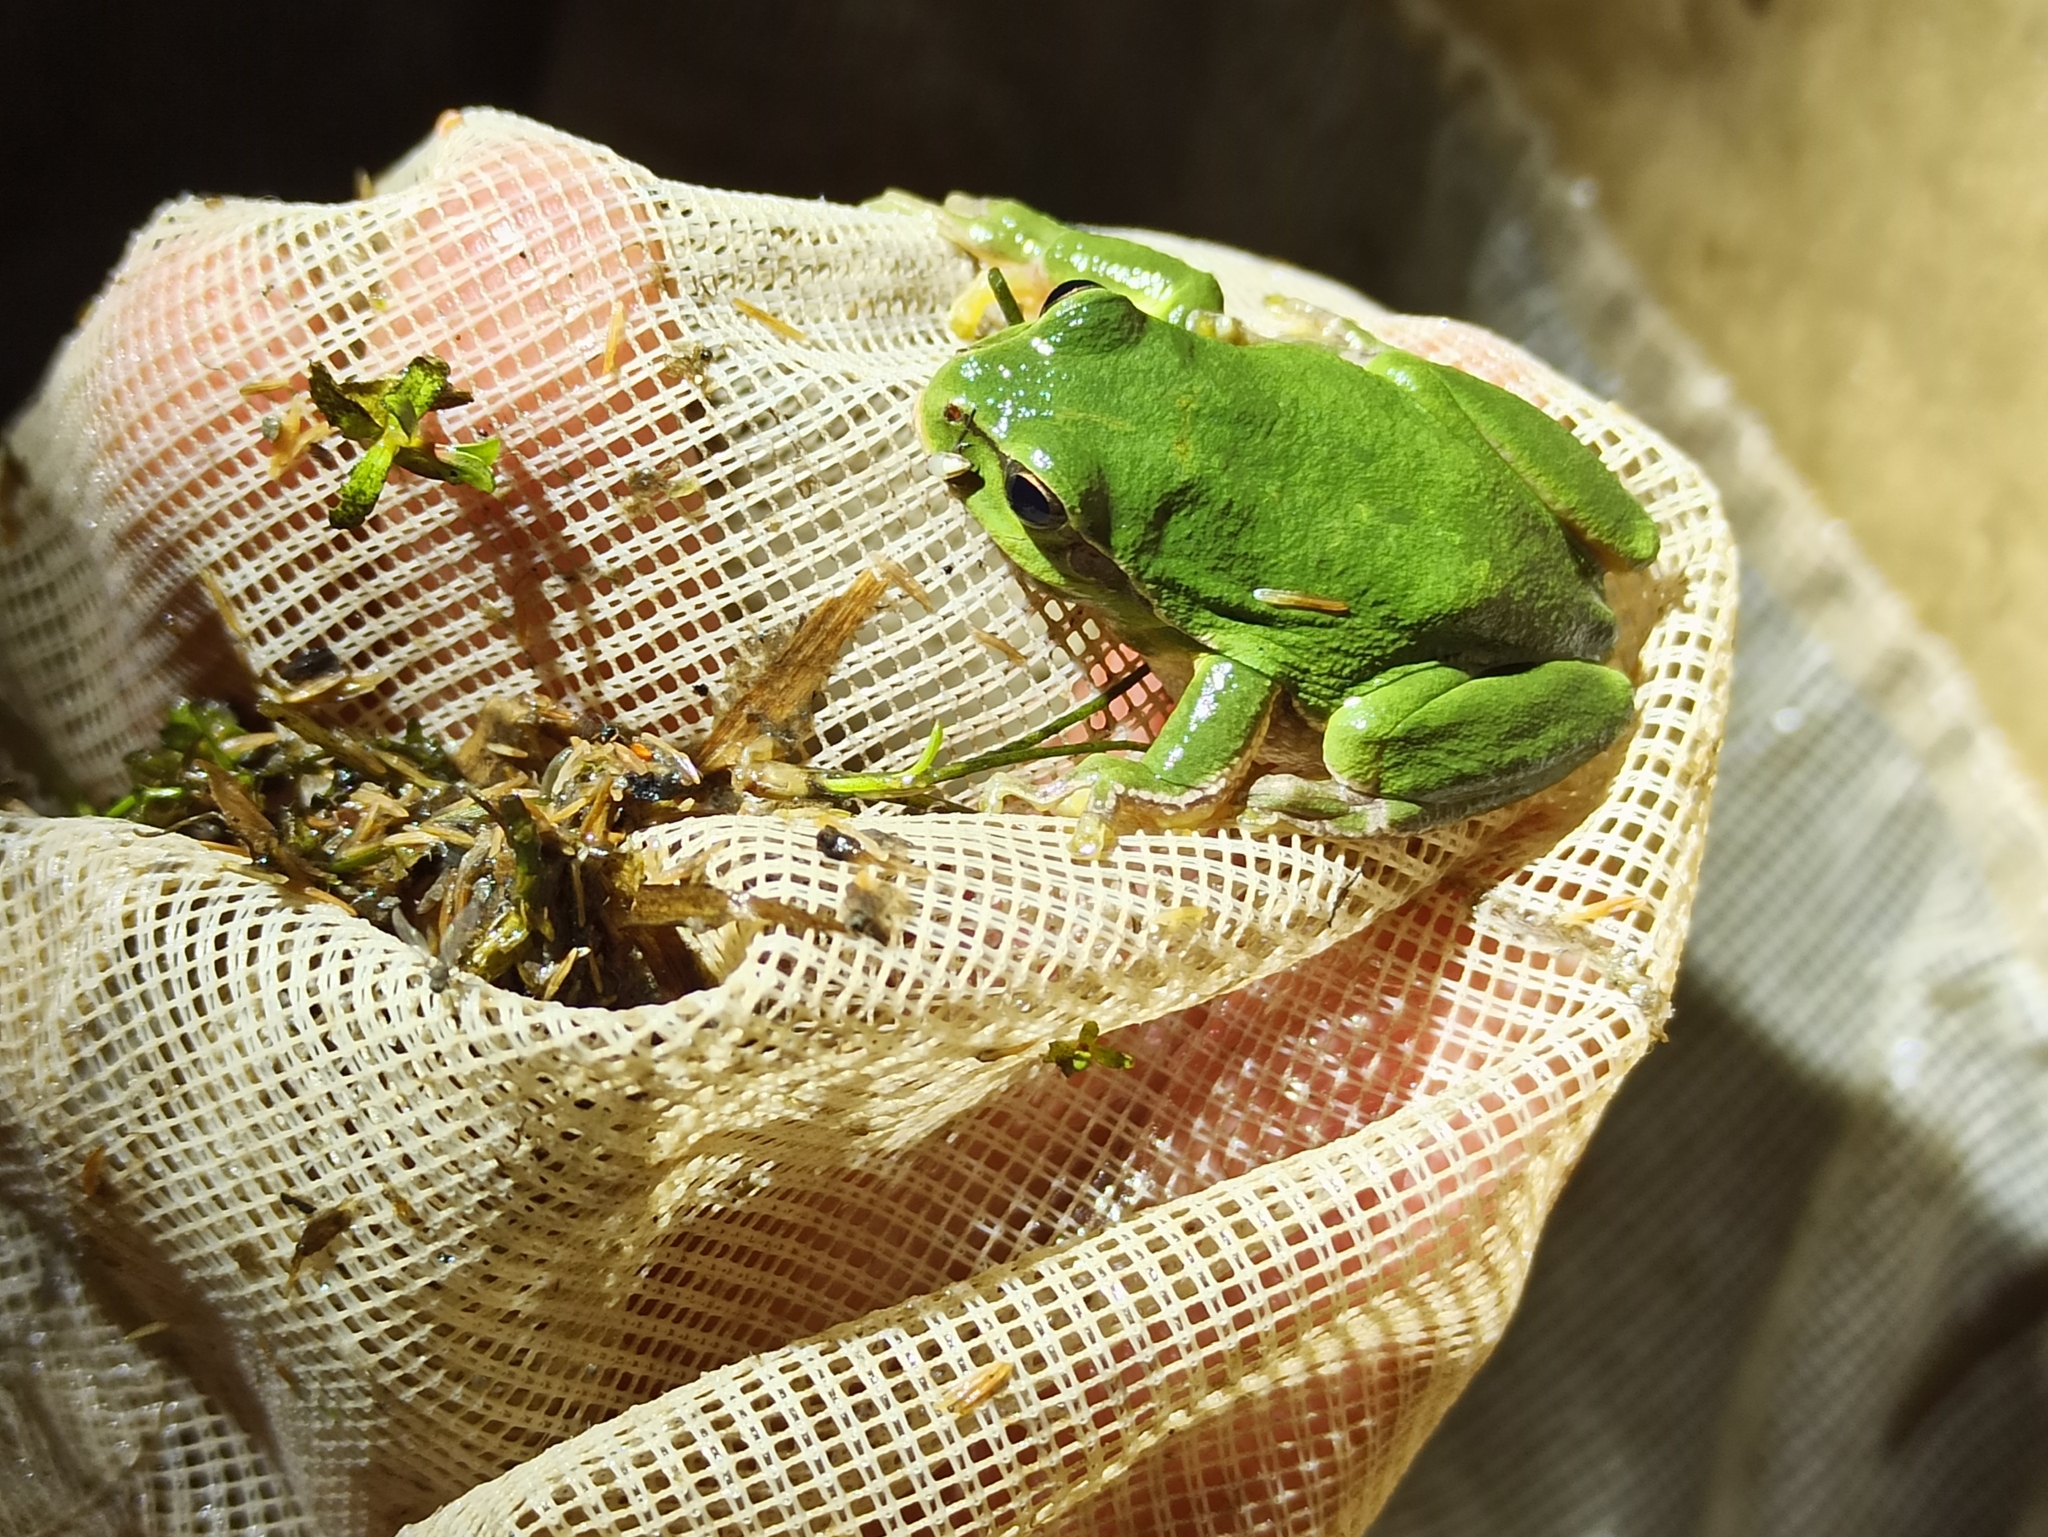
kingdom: Animalia
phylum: Chordata
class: Amphibia
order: Anura
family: Hylidae
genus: Hyla
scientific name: Hyla arborea
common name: Common tree frog
